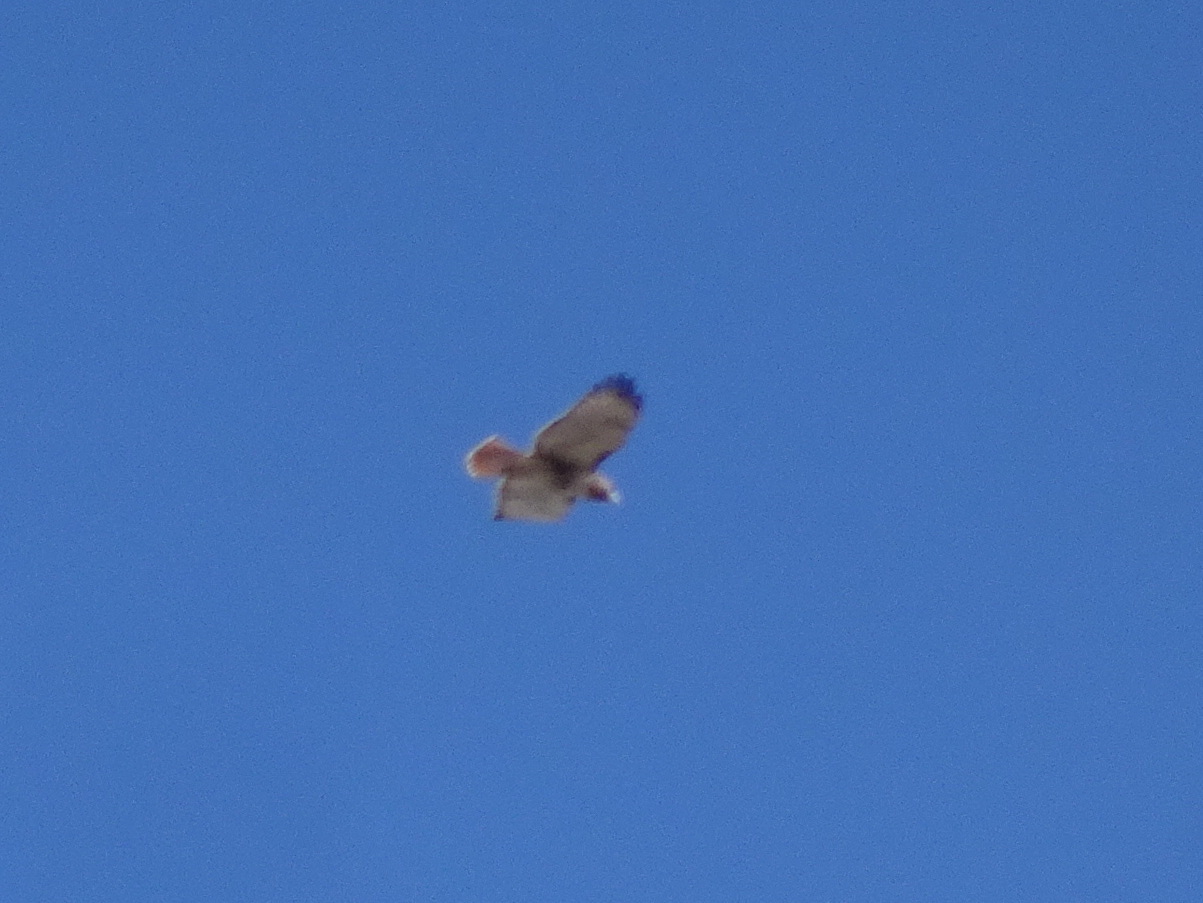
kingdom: Animalia
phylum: Chordata
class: Aves
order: Accipitriformes
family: Accipitridae
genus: Buteo
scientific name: Buteo jamaicensis
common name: Red-tailed hawk
